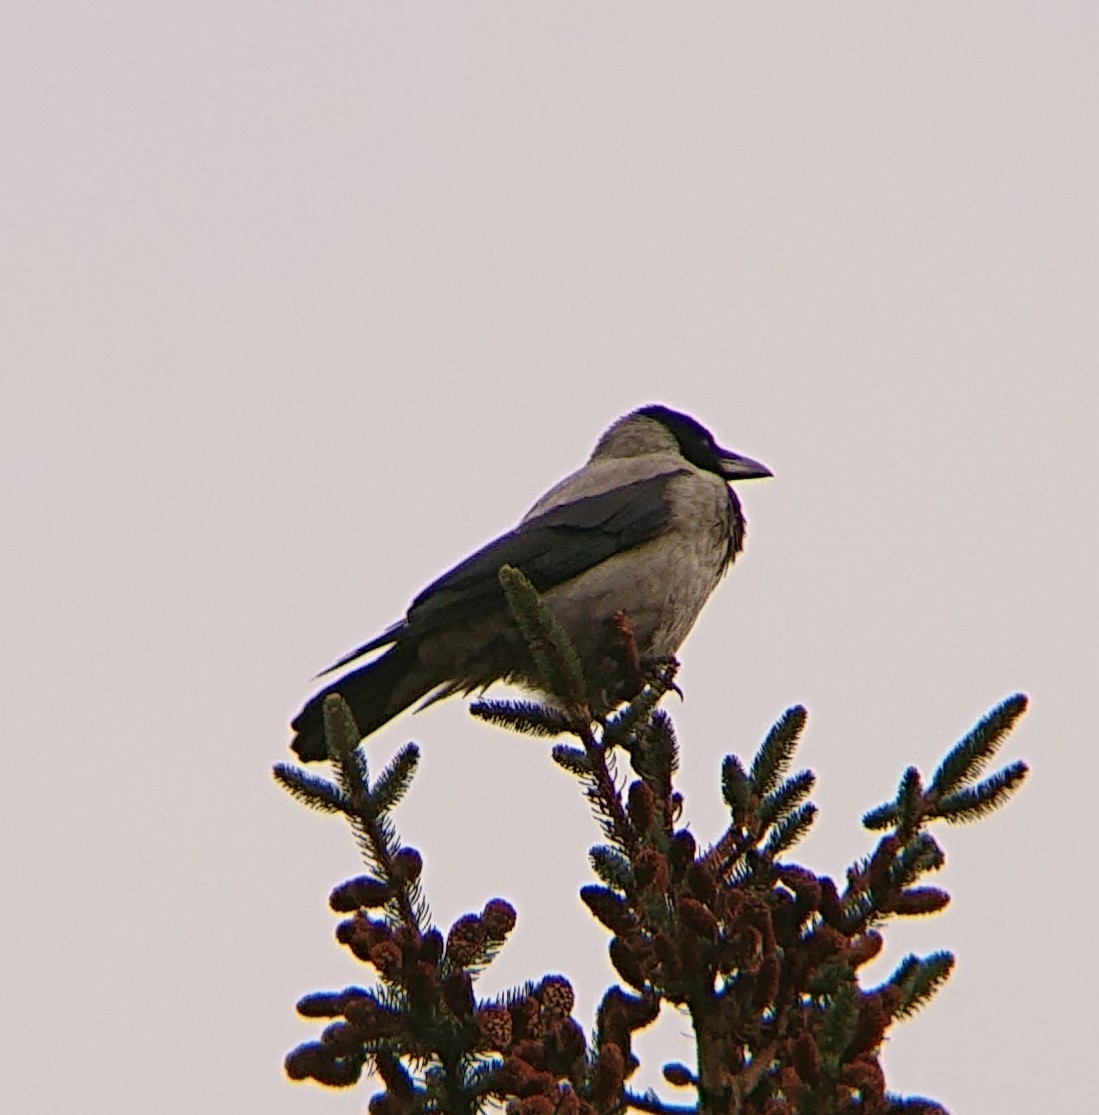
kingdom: Animalia
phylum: Chordata
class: Aves
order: Passeriformes
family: Corvidae
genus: Corvus
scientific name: Corvus cornix
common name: Hooded crow
